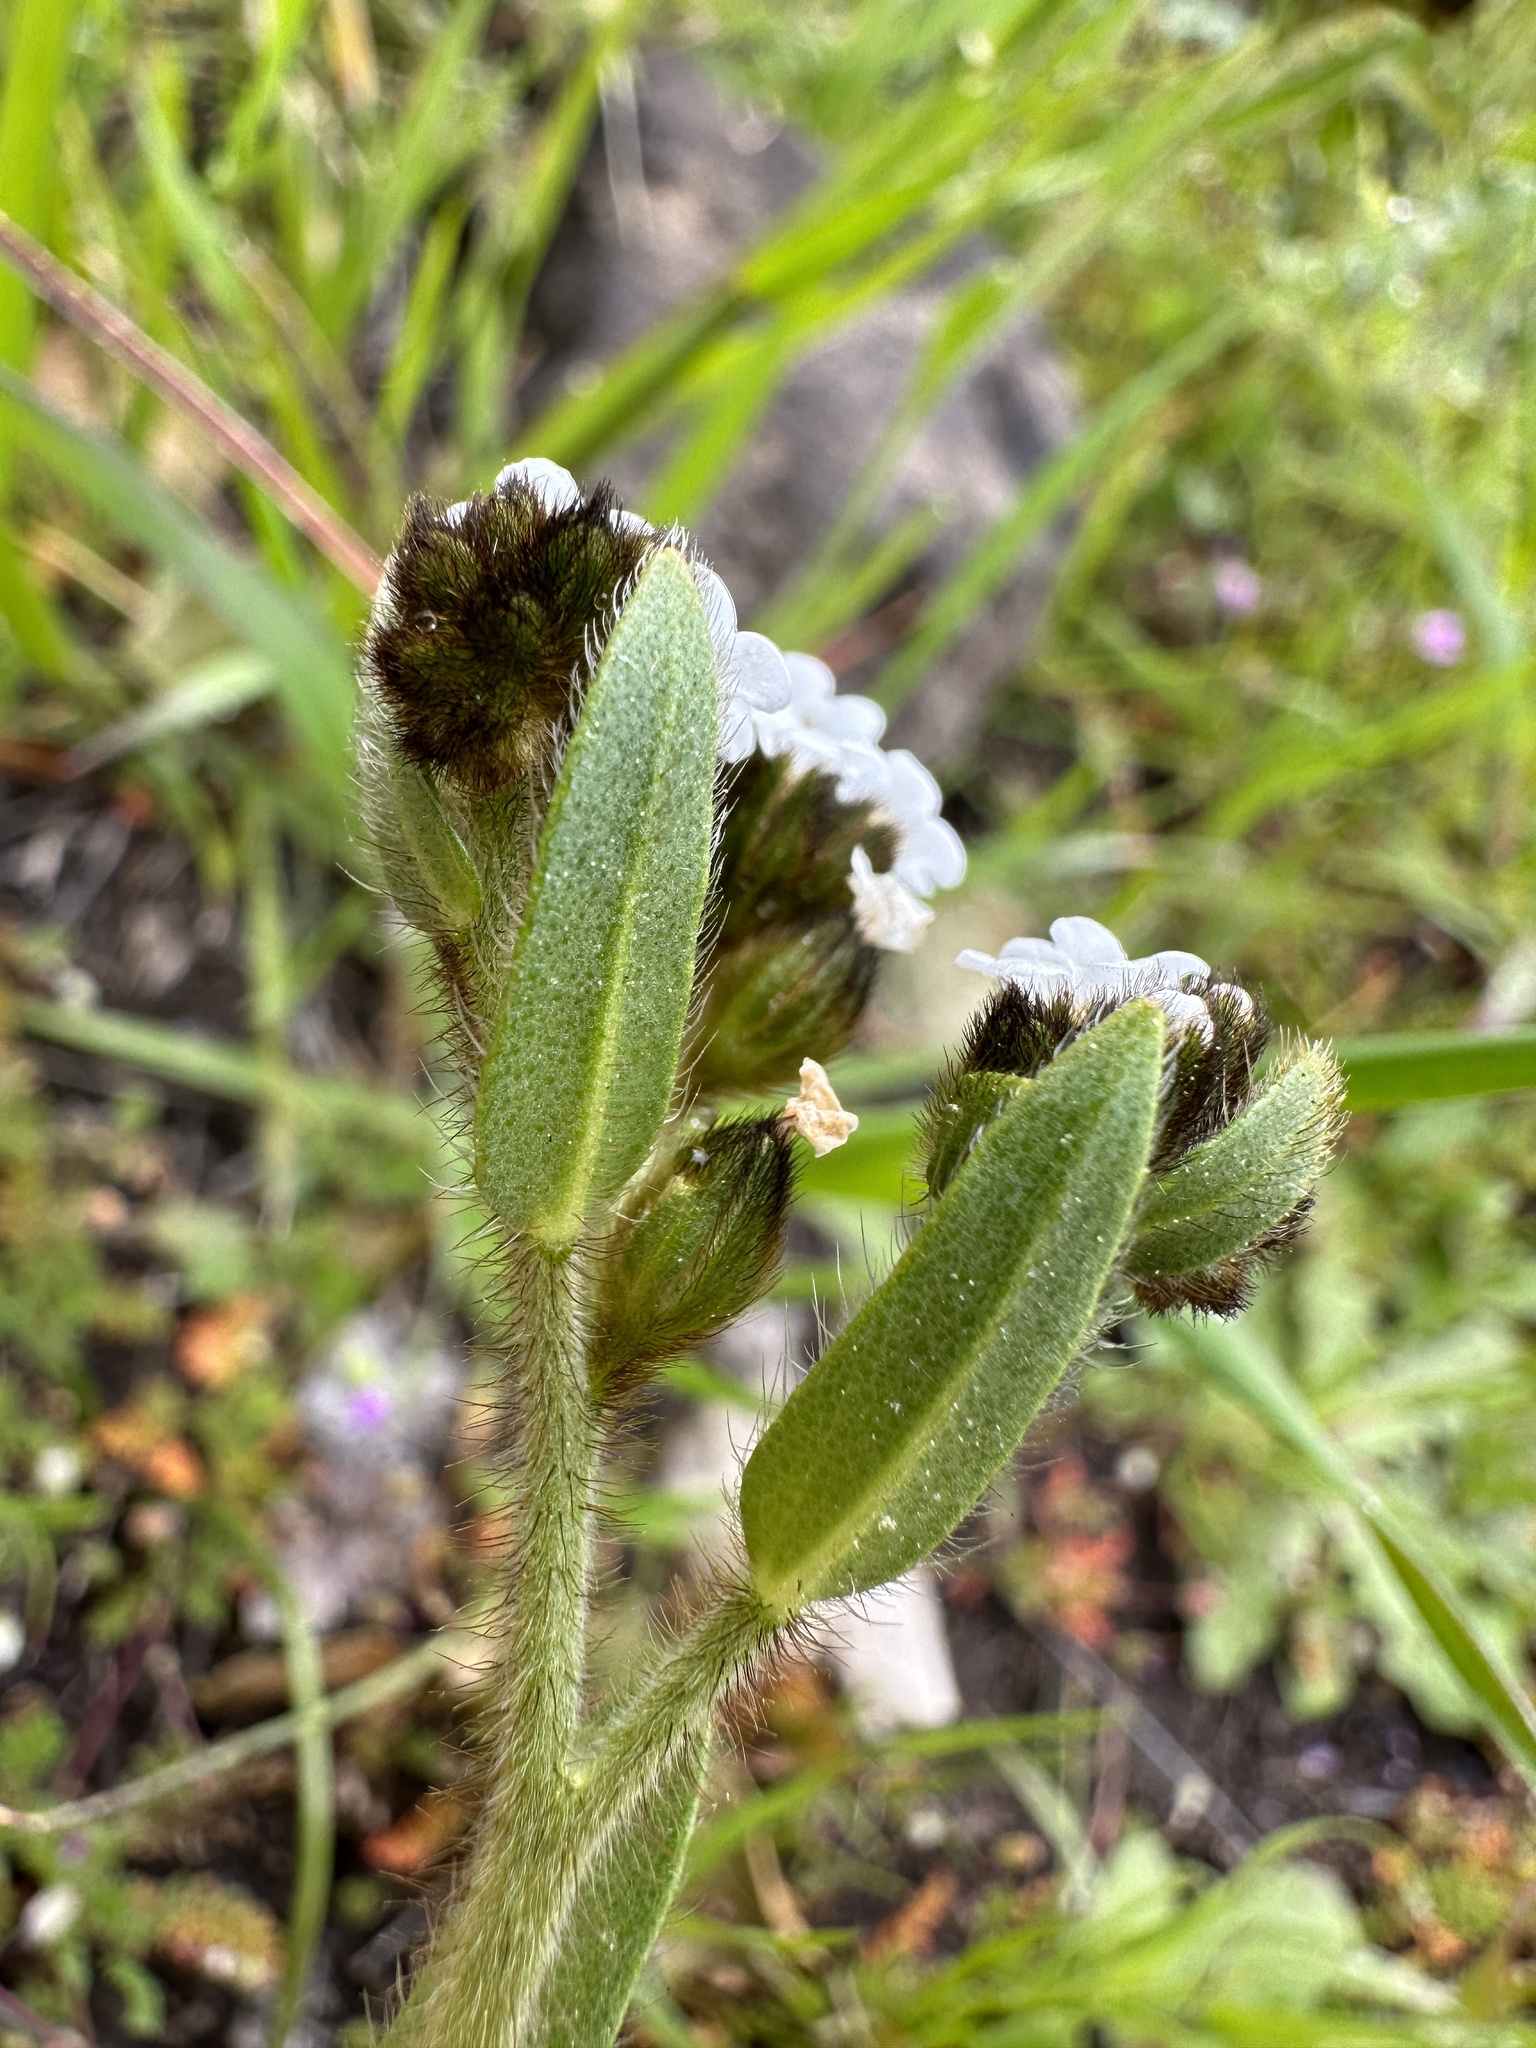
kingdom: Plantae
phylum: Tracheophyta
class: Magnoliopsida
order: Boraginales
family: Boraginaceae
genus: Plagiobothrys
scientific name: Plagiobothrys fulvus
